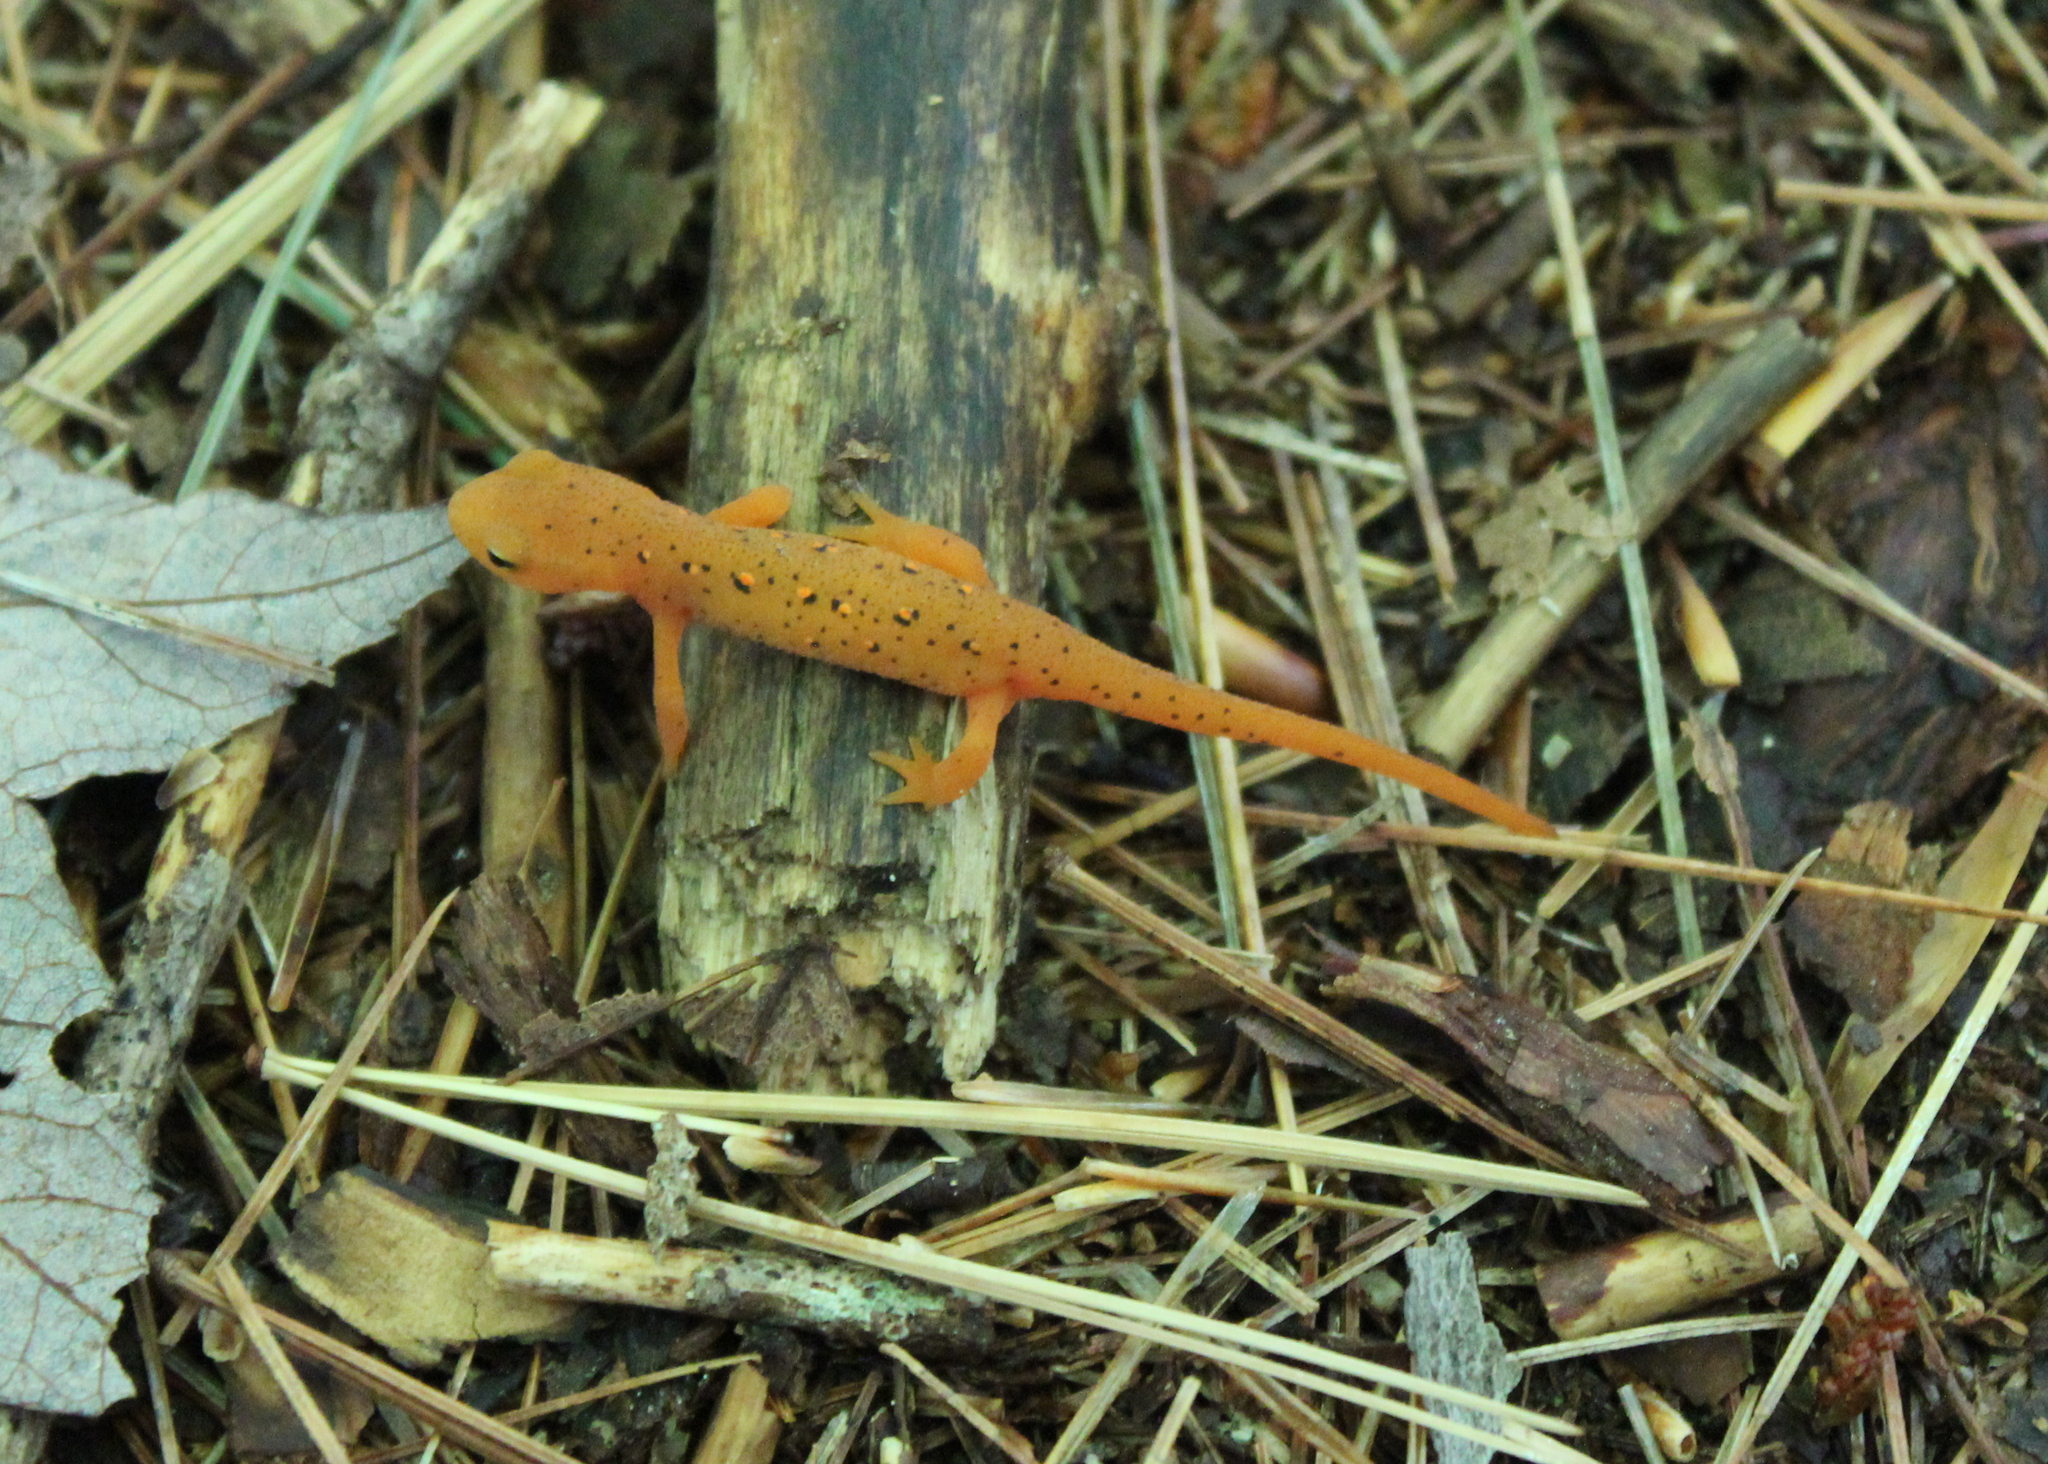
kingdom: Animalia
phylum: Chordata
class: Amphibia
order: Caudata
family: Salamandridae
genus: Notophthalmus
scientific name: Notophthalmus viridescens
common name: Eastern newt
